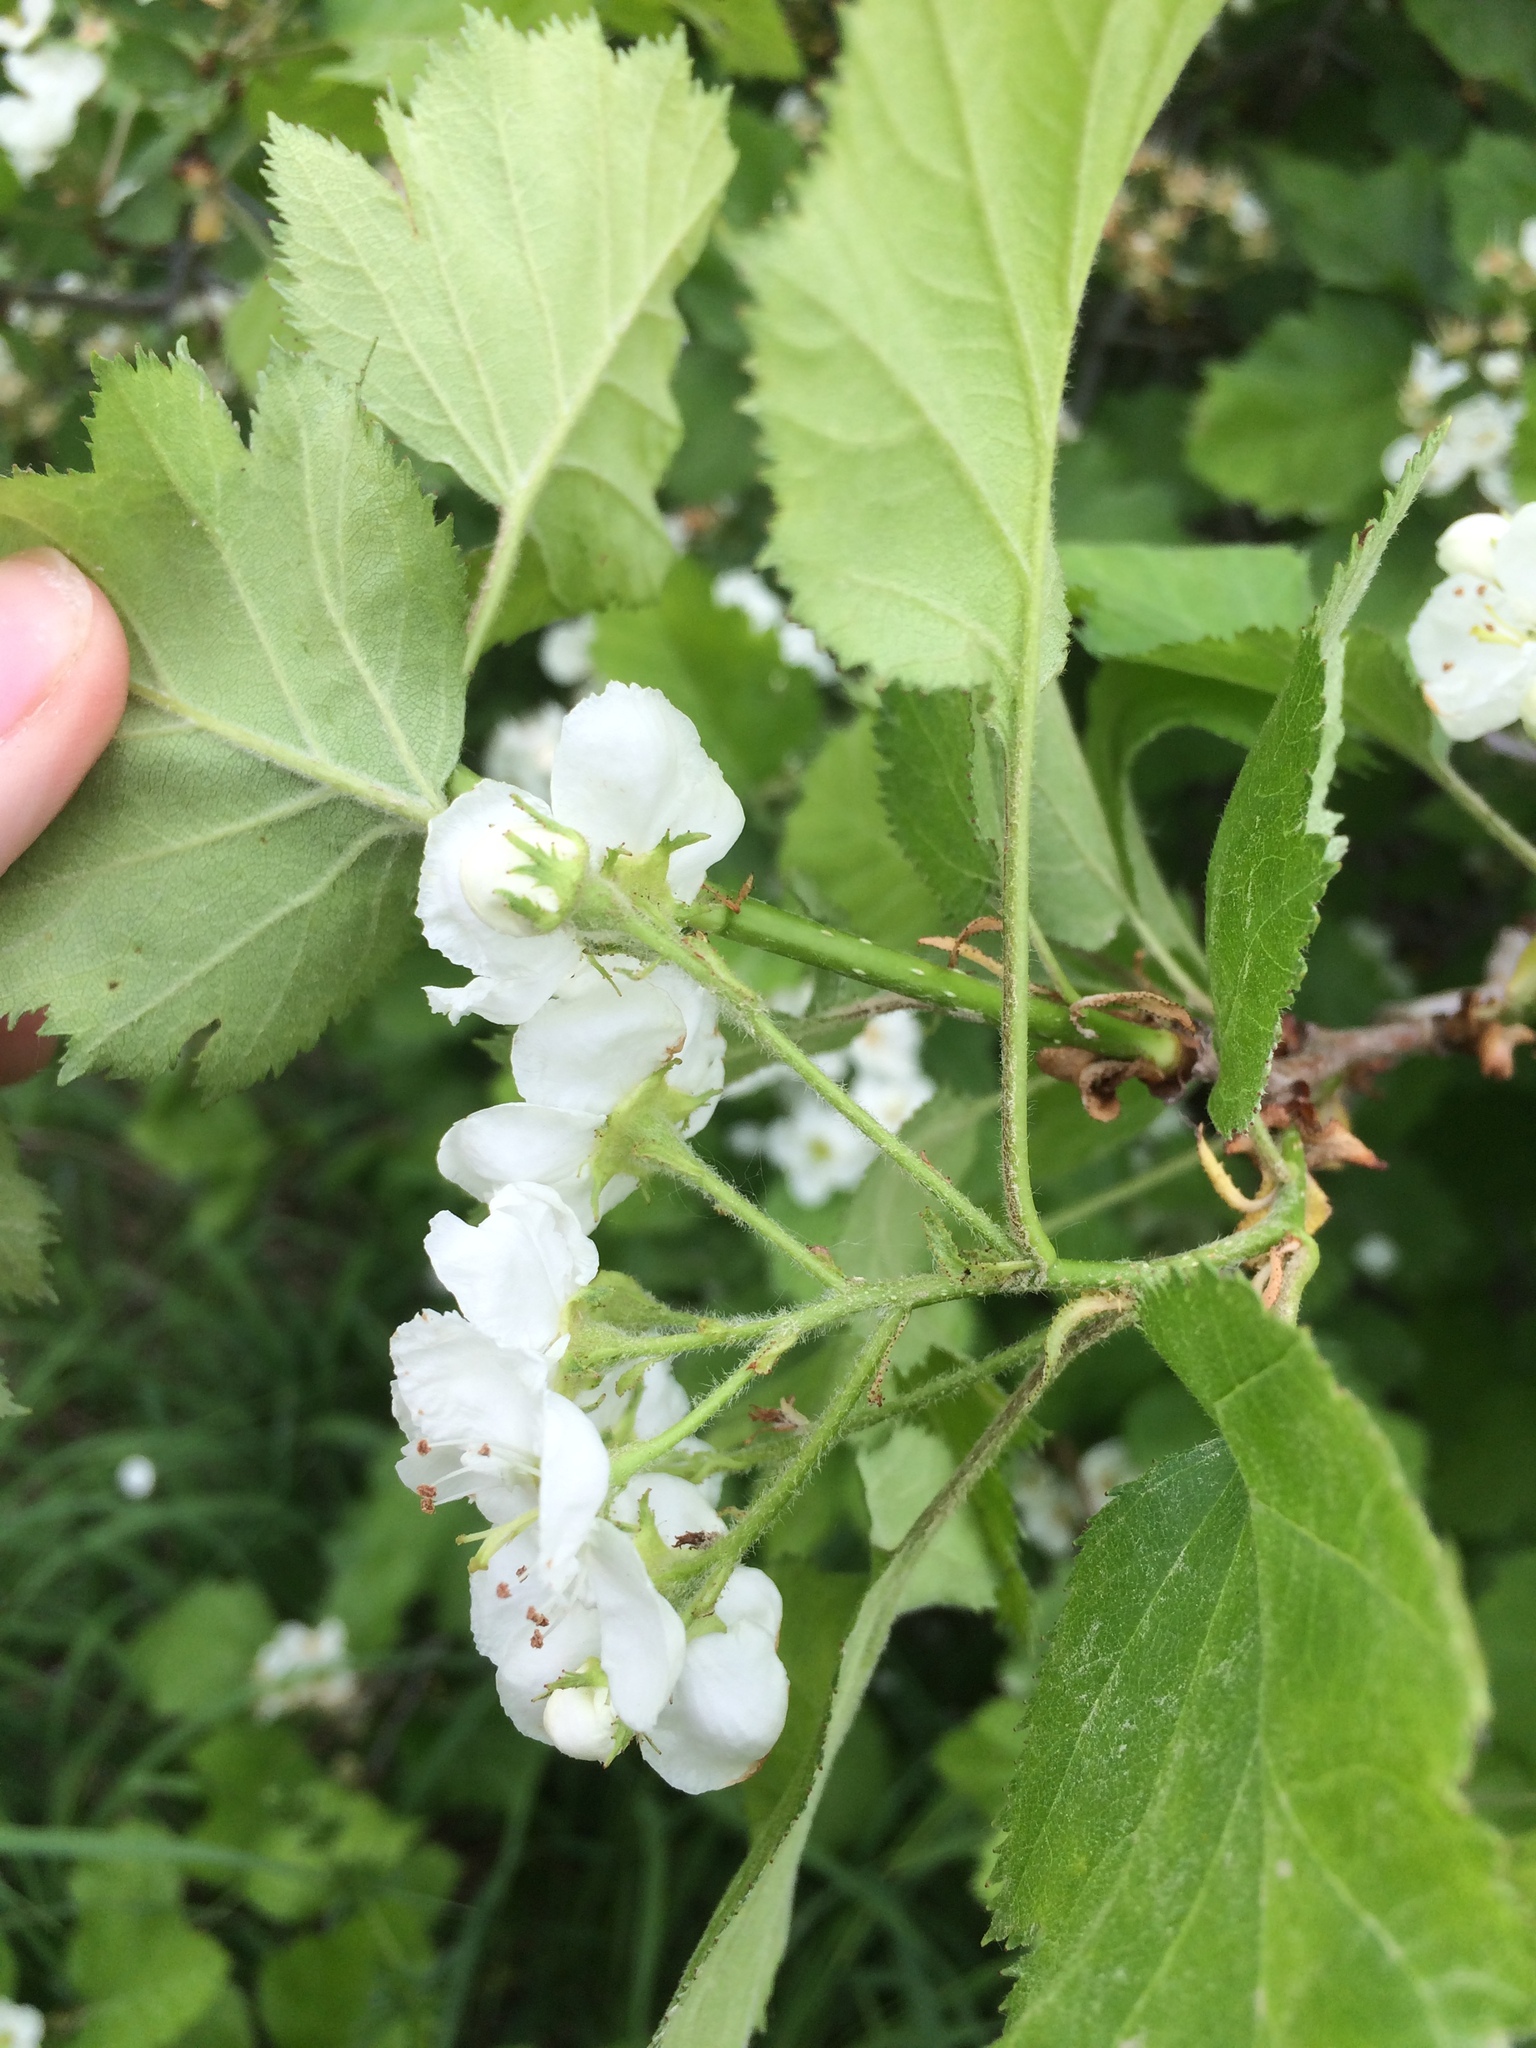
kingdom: Plantae
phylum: Tracheophyta
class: Magnoliopsida
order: Rosales
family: Rosaceae
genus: Crataegus
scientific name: Crataegus submollis
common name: Hairy cockspurthorn
